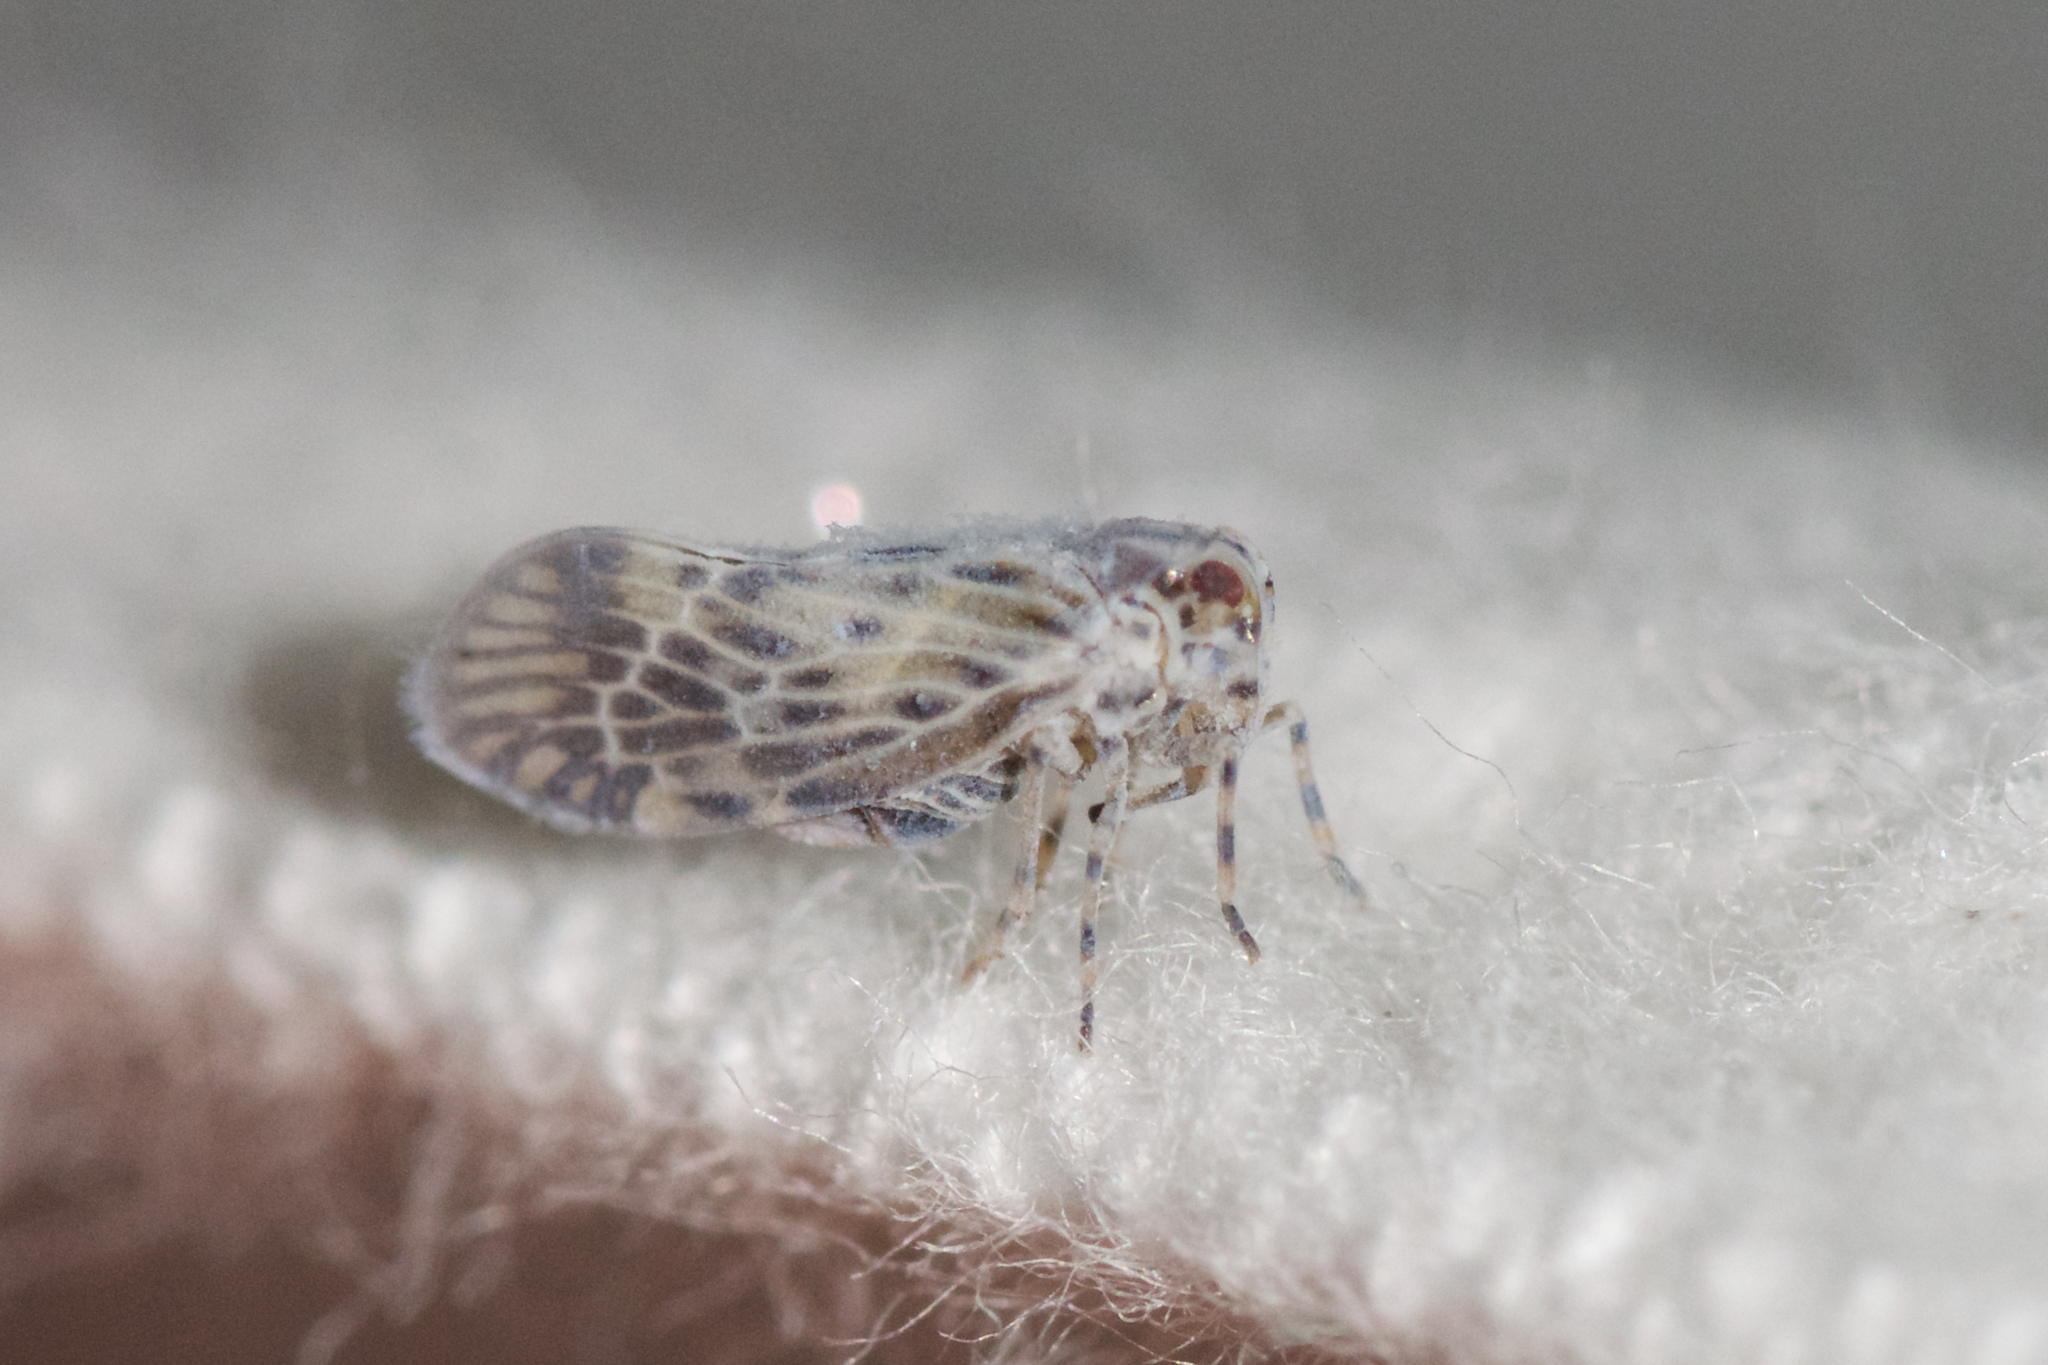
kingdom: Animalia
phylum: Arthropoda
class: Insecta
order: Hemiptera
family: Derbidae
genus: Cedusa
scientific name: Cedusa maculata
